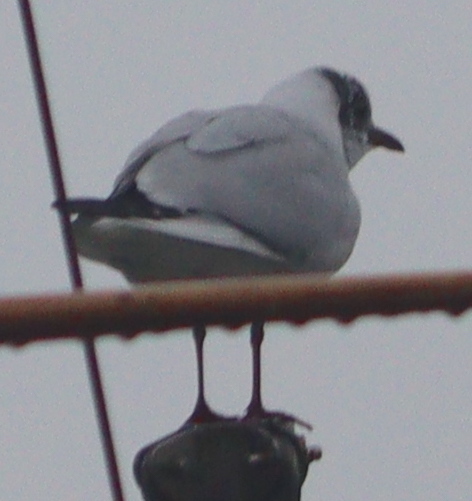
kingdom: Animalia
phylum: Chordata
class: Aves
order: Charadriiformes
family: Laridae
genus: Chroicocephalus
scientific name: Chroicocephalus ridibundus
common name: Black-headed gull
